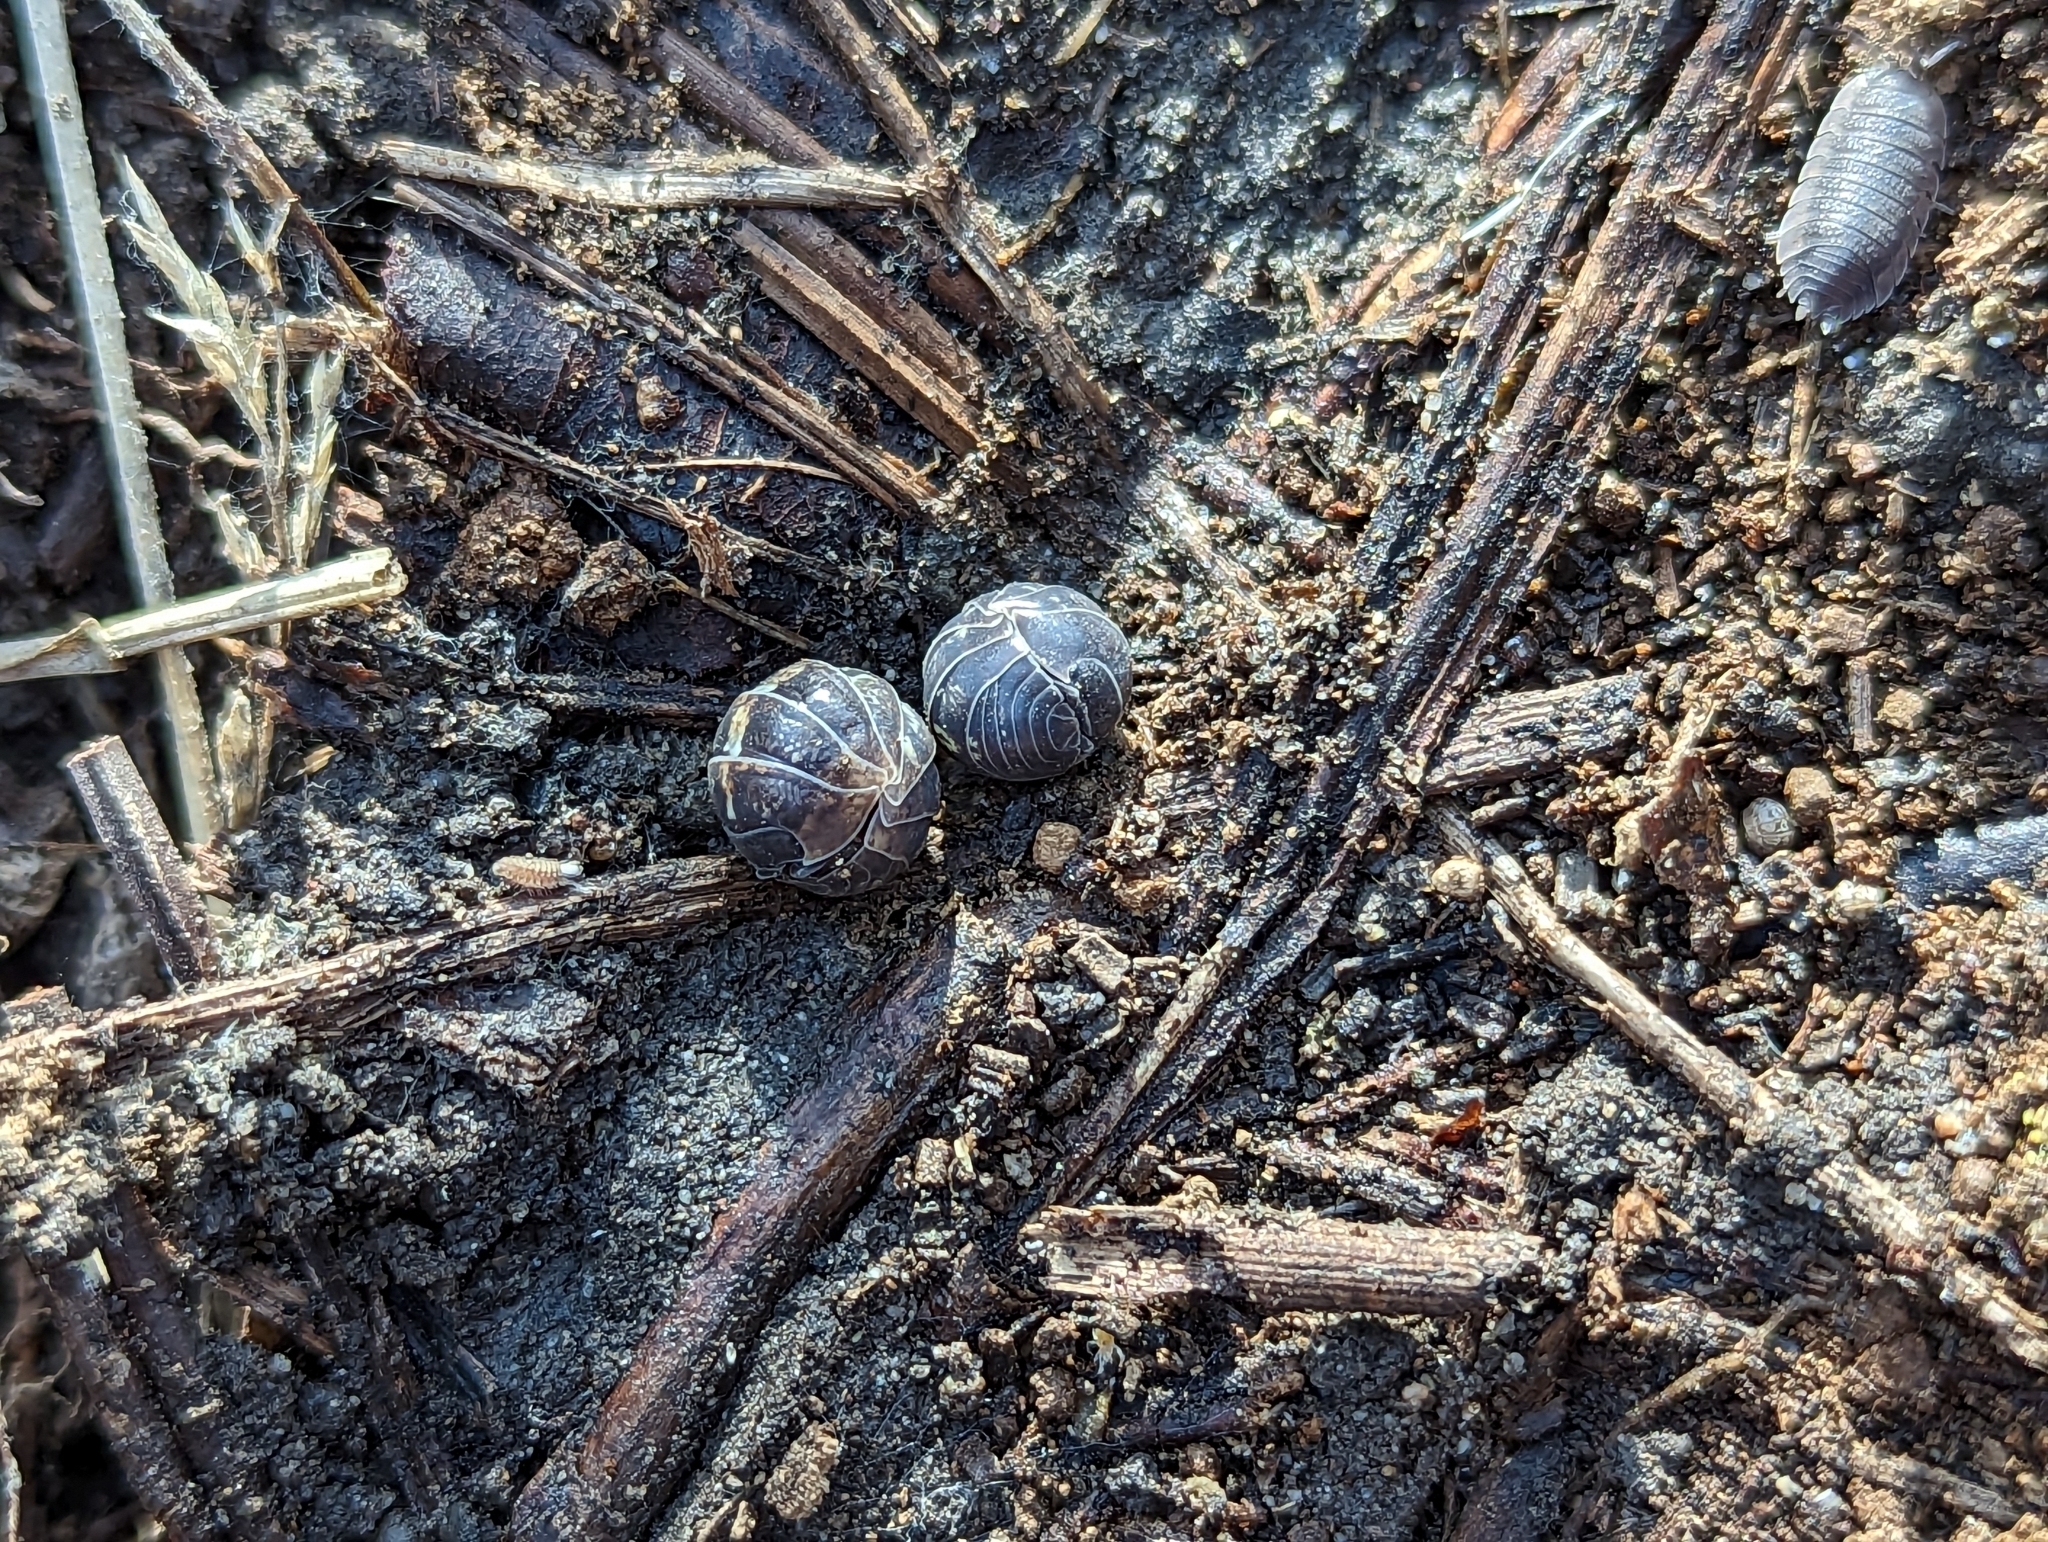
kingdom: Animalia
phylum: Arthropoda
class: Malacostraca
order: Isopoda
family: Armadillidiidae
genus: Armadillidium
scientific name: Armadillidium vulgare
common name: Common pill woodlouse
